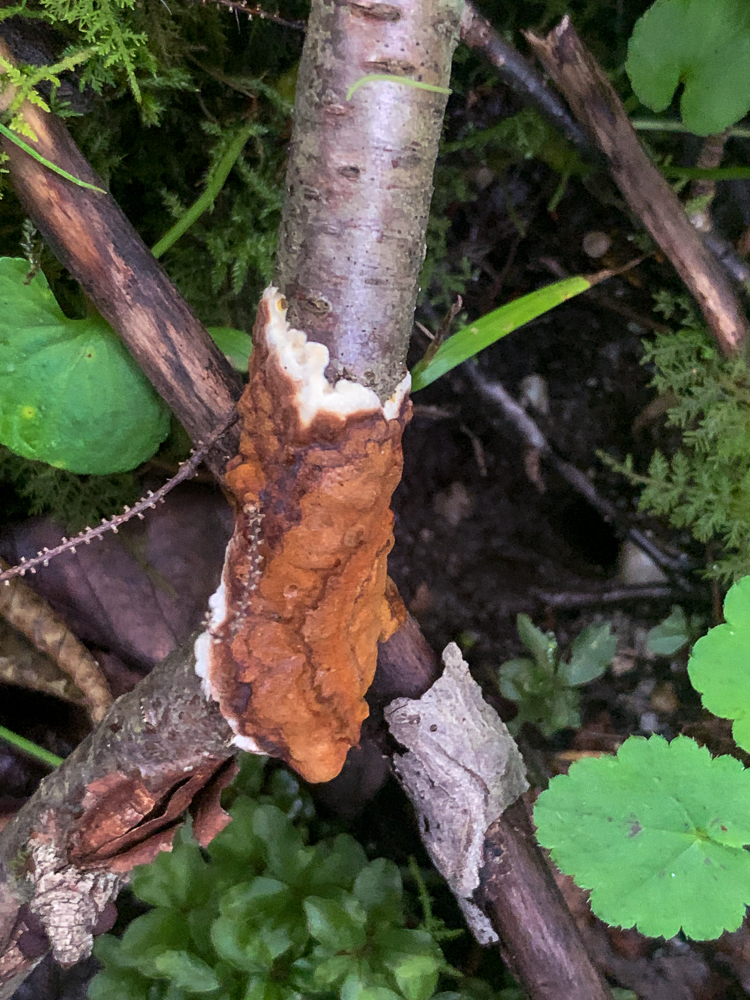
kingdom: Fungi
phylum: Basidiomycota
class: Agaricomycetes
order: Hymenochaetales
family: Hymenochaetaceae
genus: Hydnoporia
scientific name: Hydnoporia diffissa
